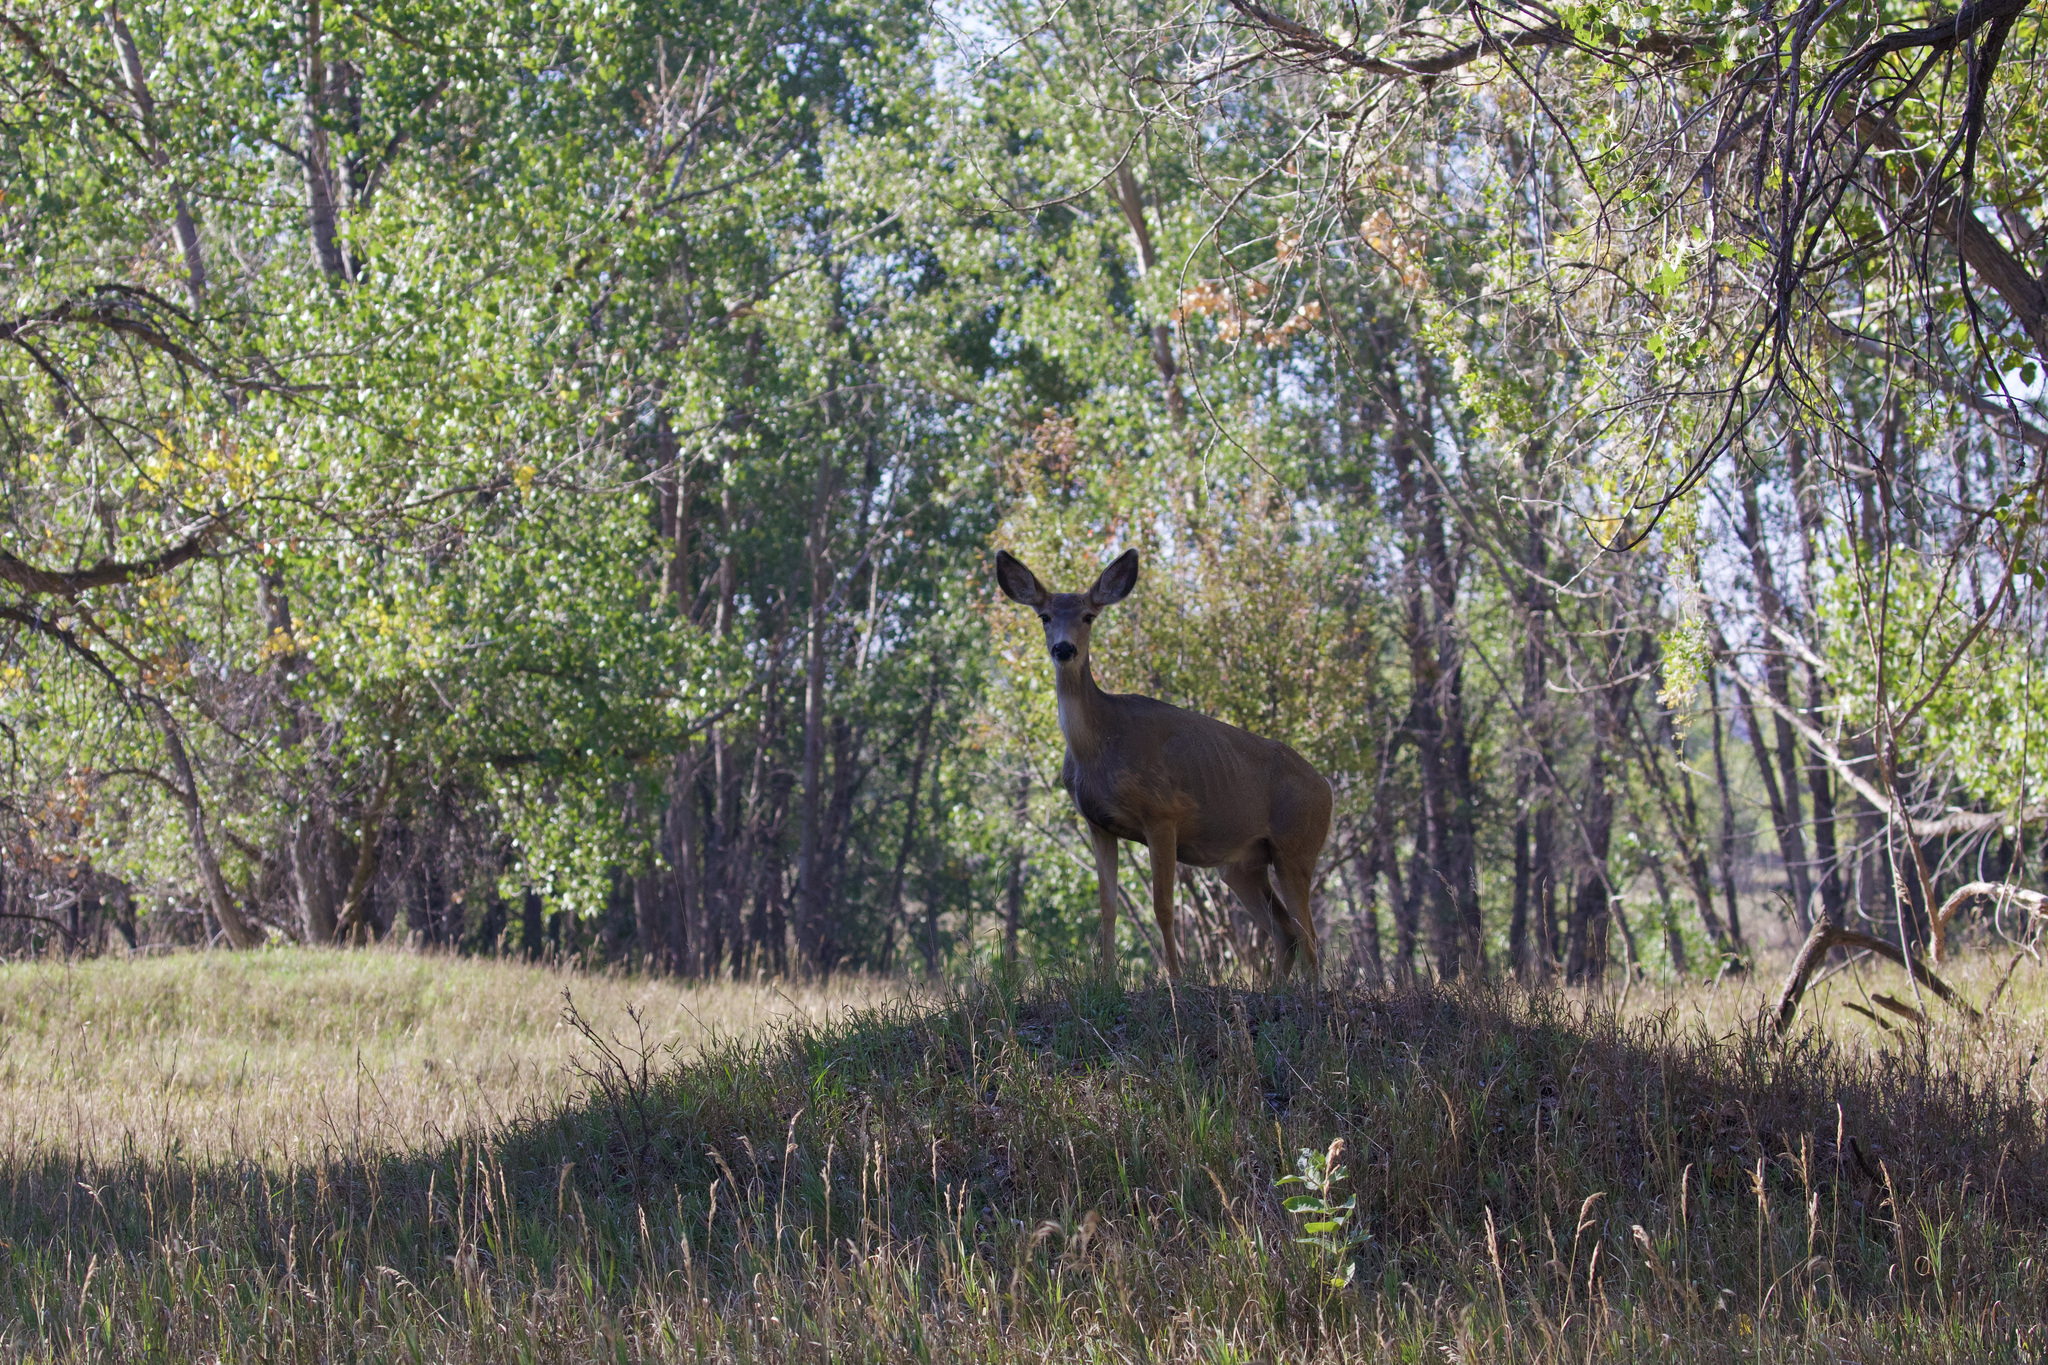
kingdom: Animalia
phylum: Chordata
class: Mammalia
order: Artiodactyla
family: Cervidae
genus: Odocoileus
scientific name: Odocoileus hemionus
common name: Mule deer
